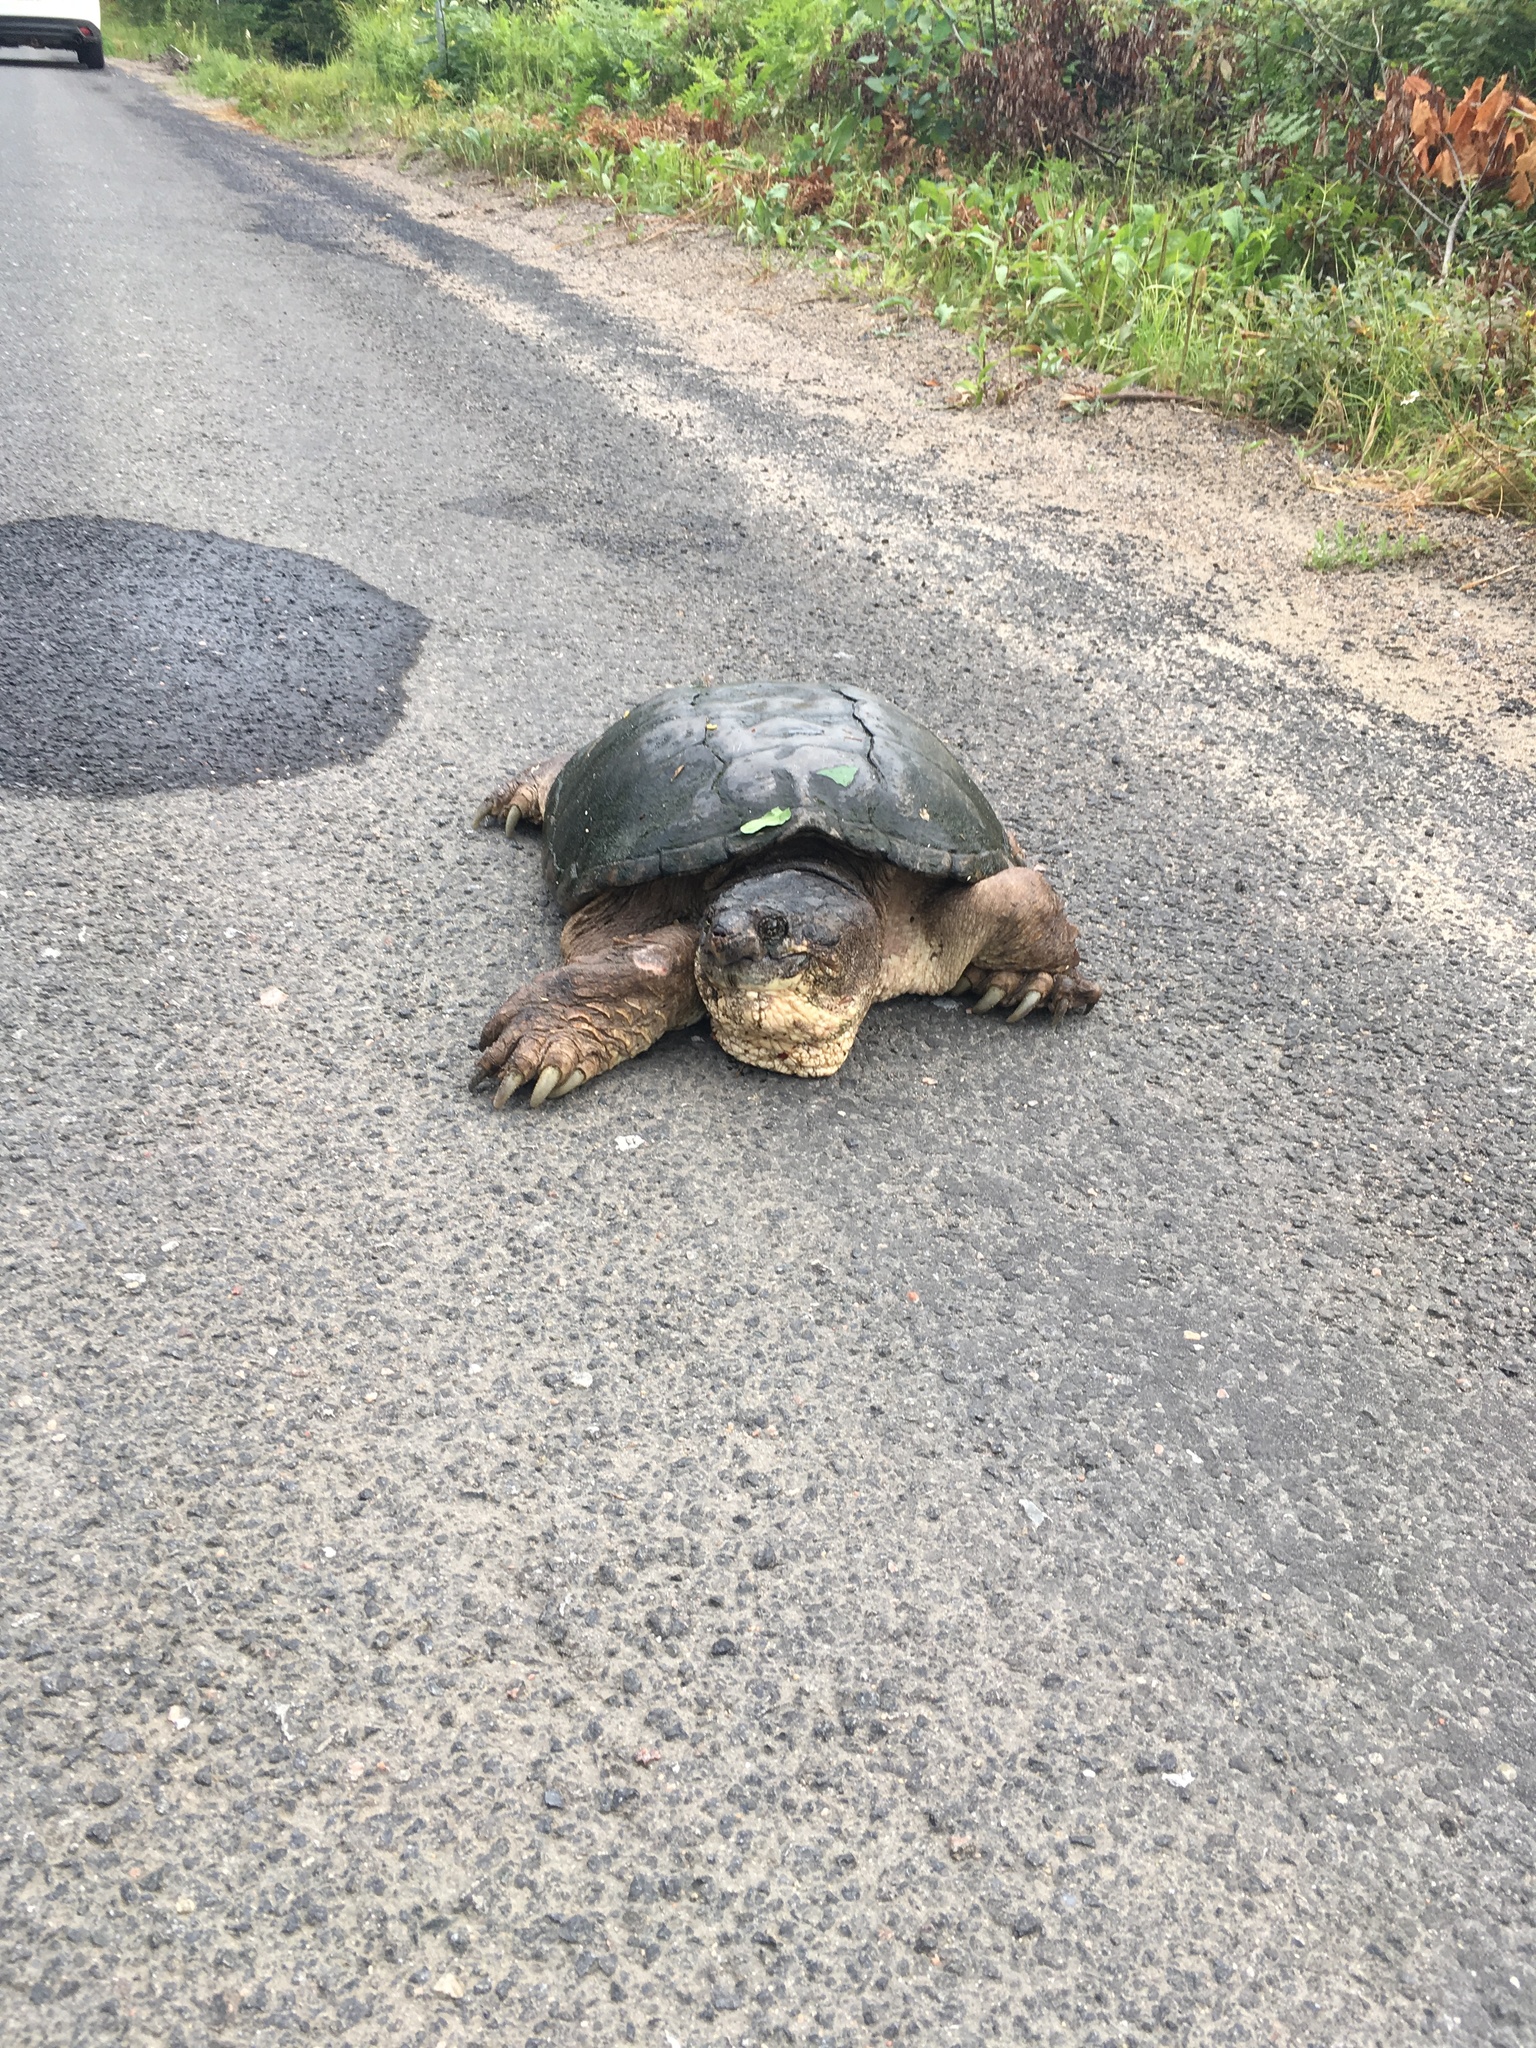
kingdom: Animalia
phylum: Chordata
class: Testudines
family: Chelydridae
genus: Chelydra
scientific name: Chelydra serpentina
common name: Common snapping turtle
